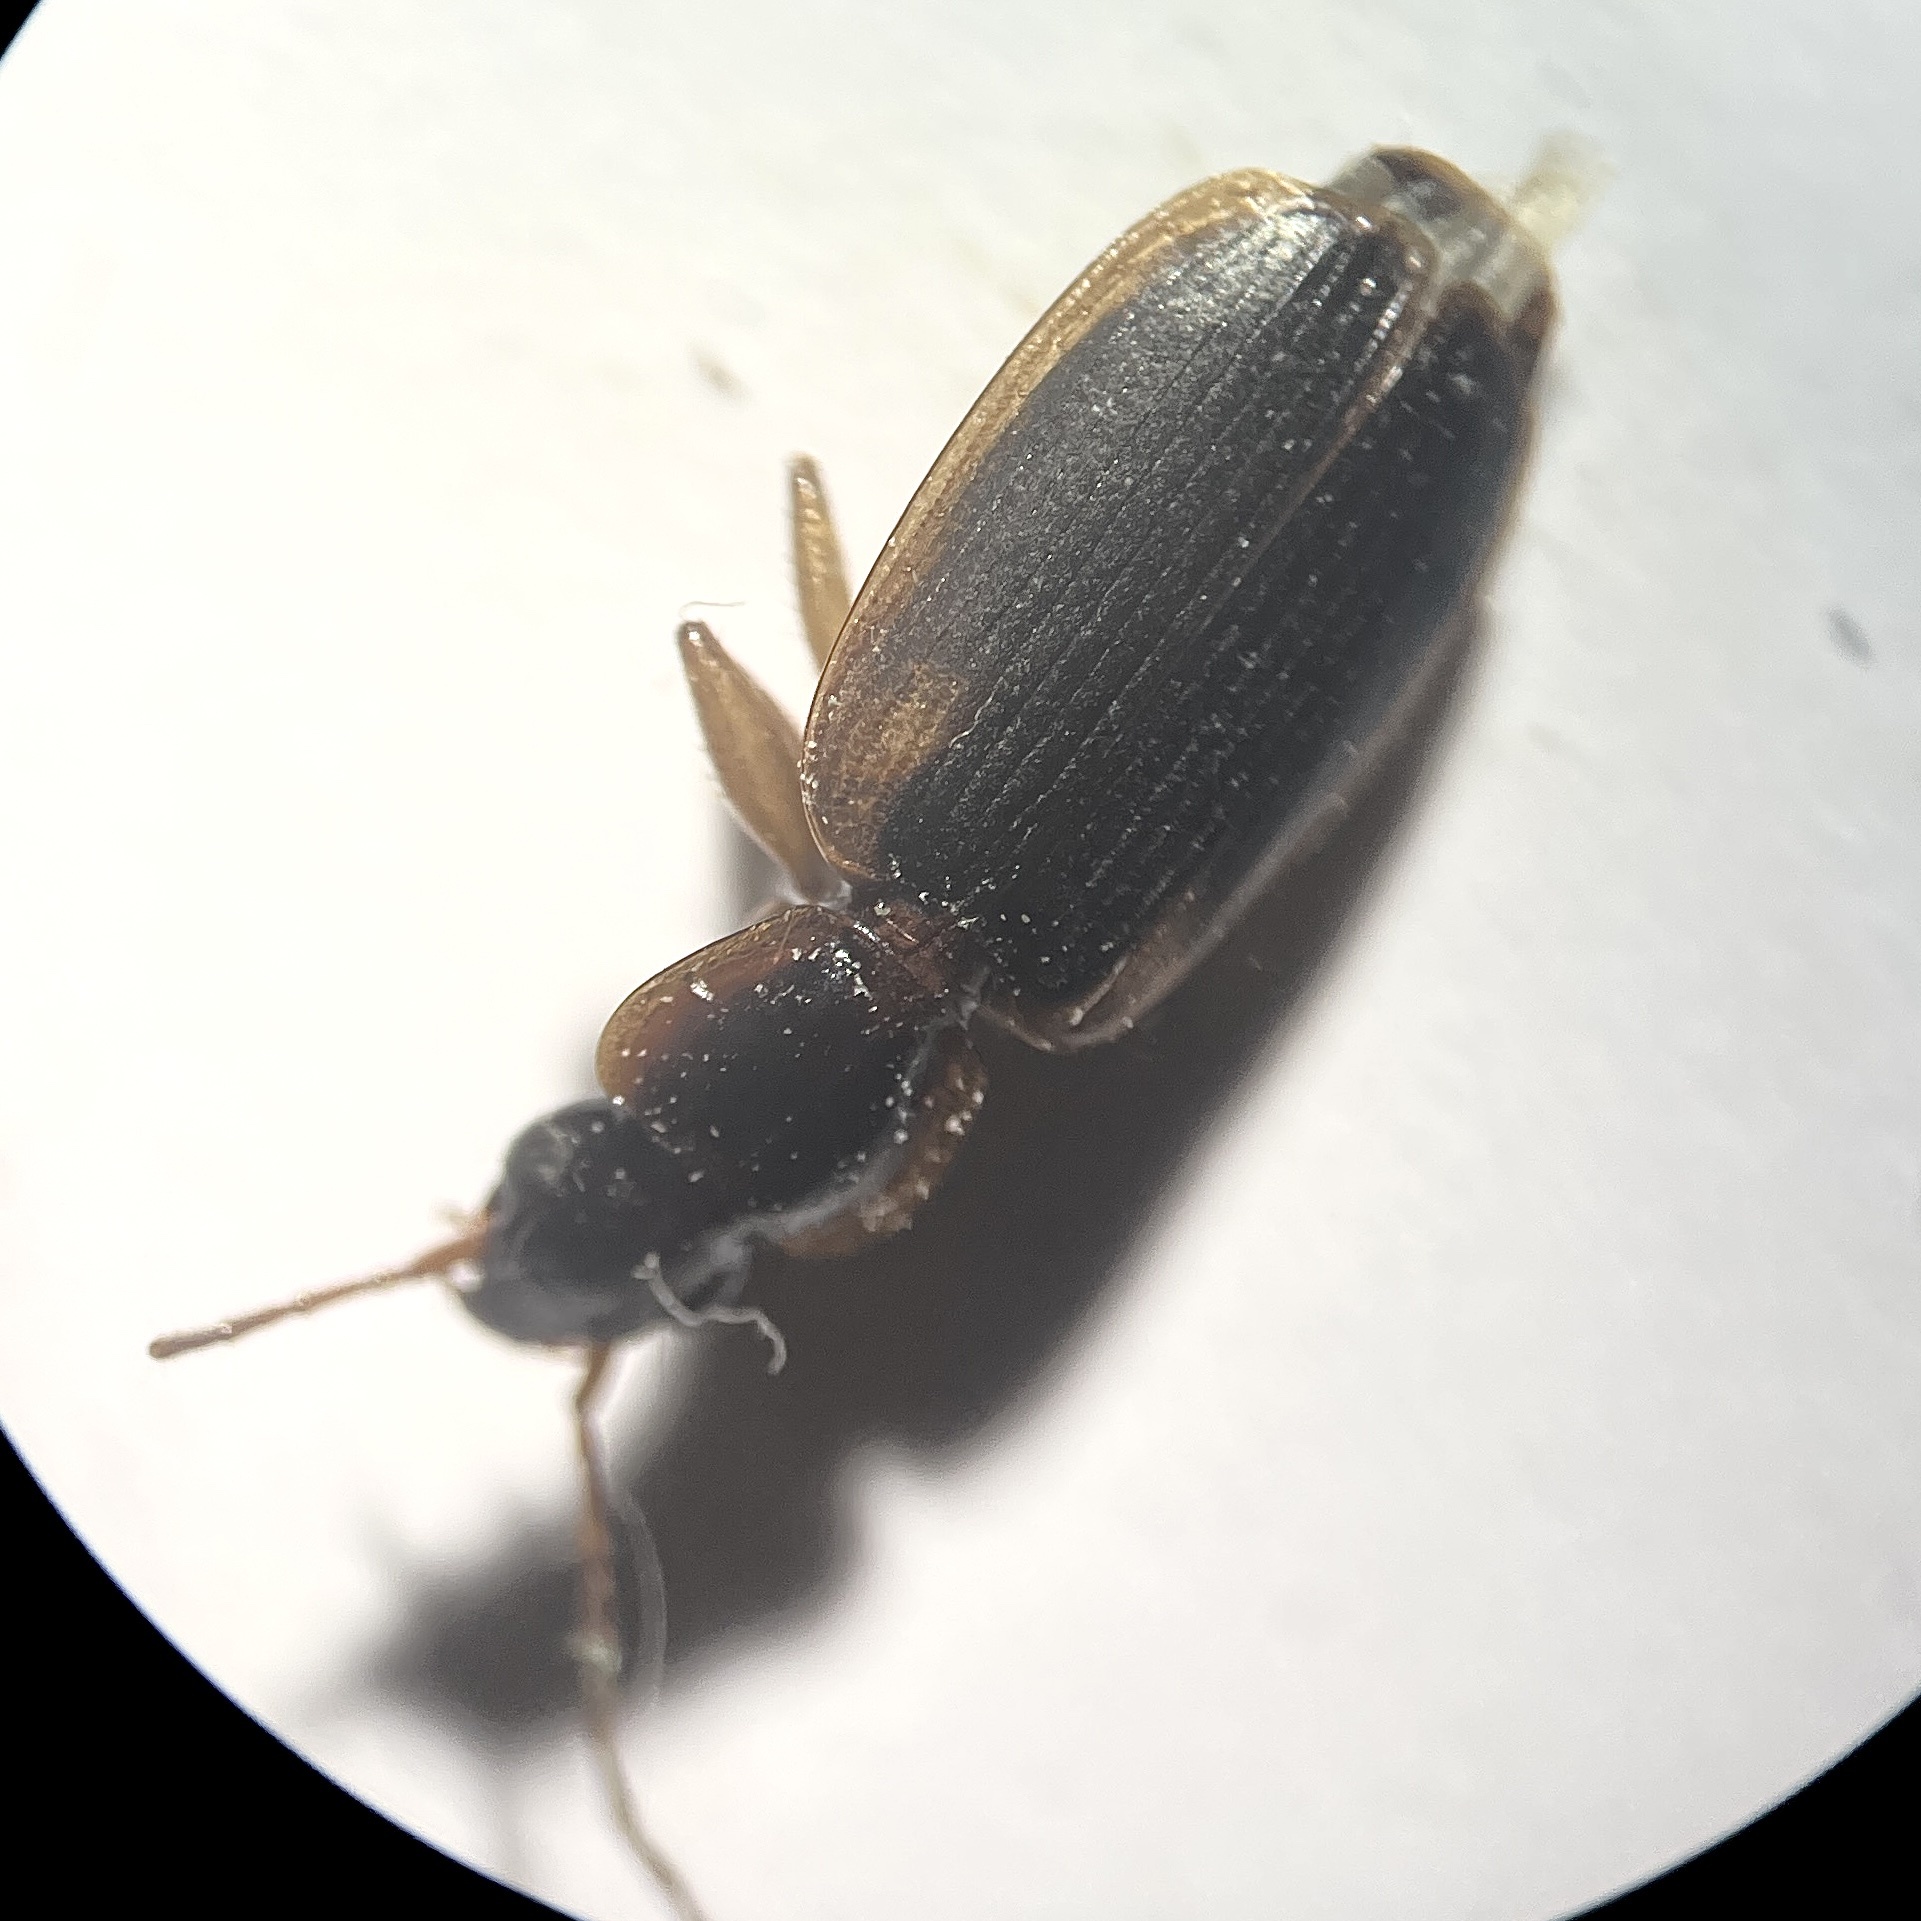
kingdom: Animalia
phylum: Arthropoda
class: Insecta
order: Coleoptera
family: Carabidae
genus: Pinacodera
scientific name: Pinacodera limbata
